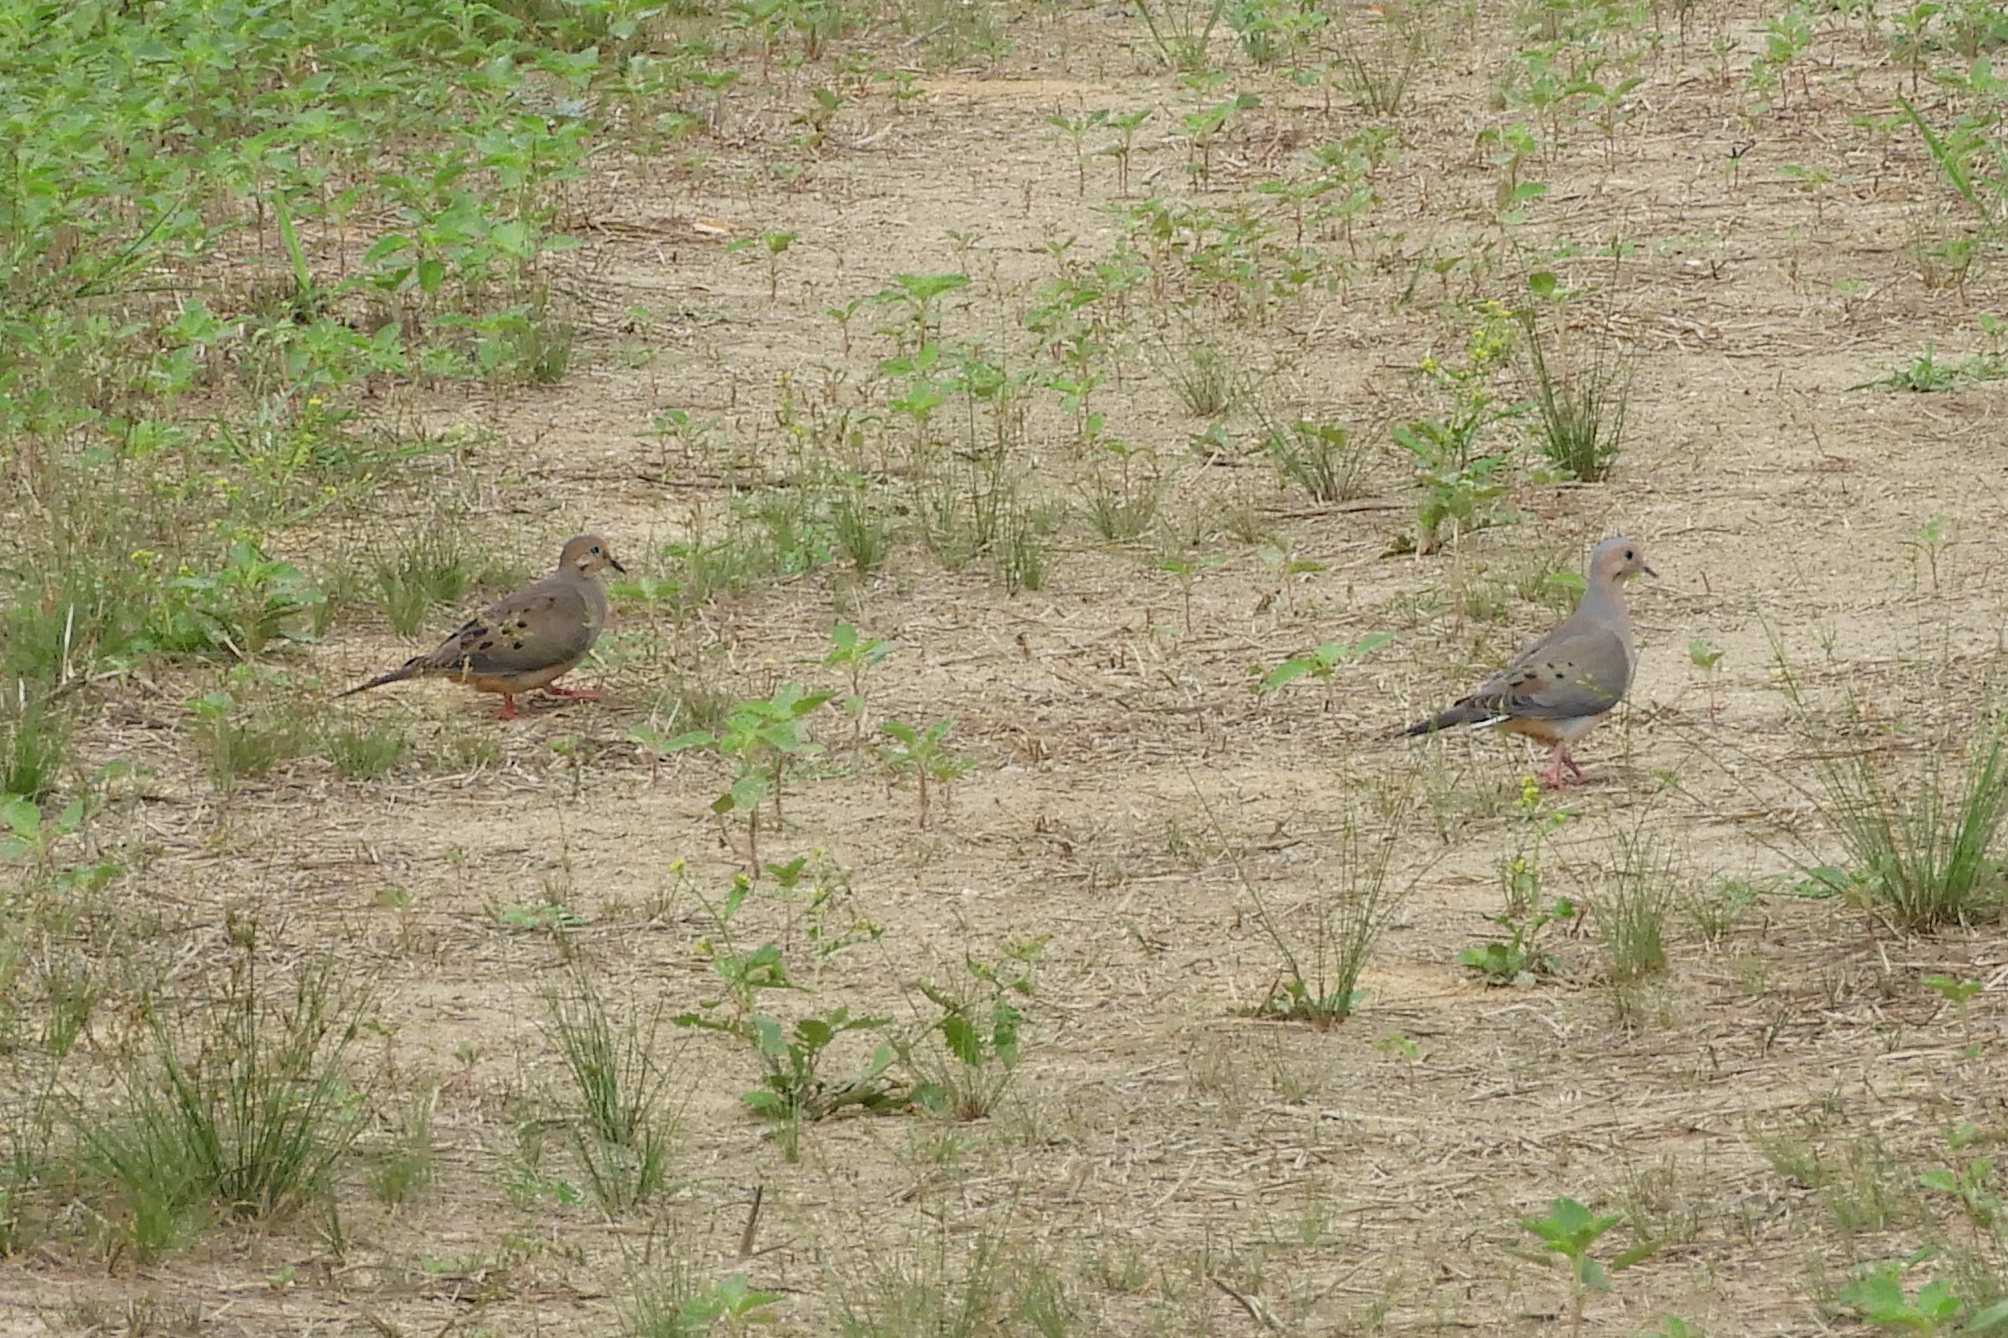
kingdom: Animalia
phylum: Chordata
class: Aves
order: Columbiformes
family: Columbidae
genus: Zenaida
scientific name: Zenaida macroura
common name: Mourning dove
